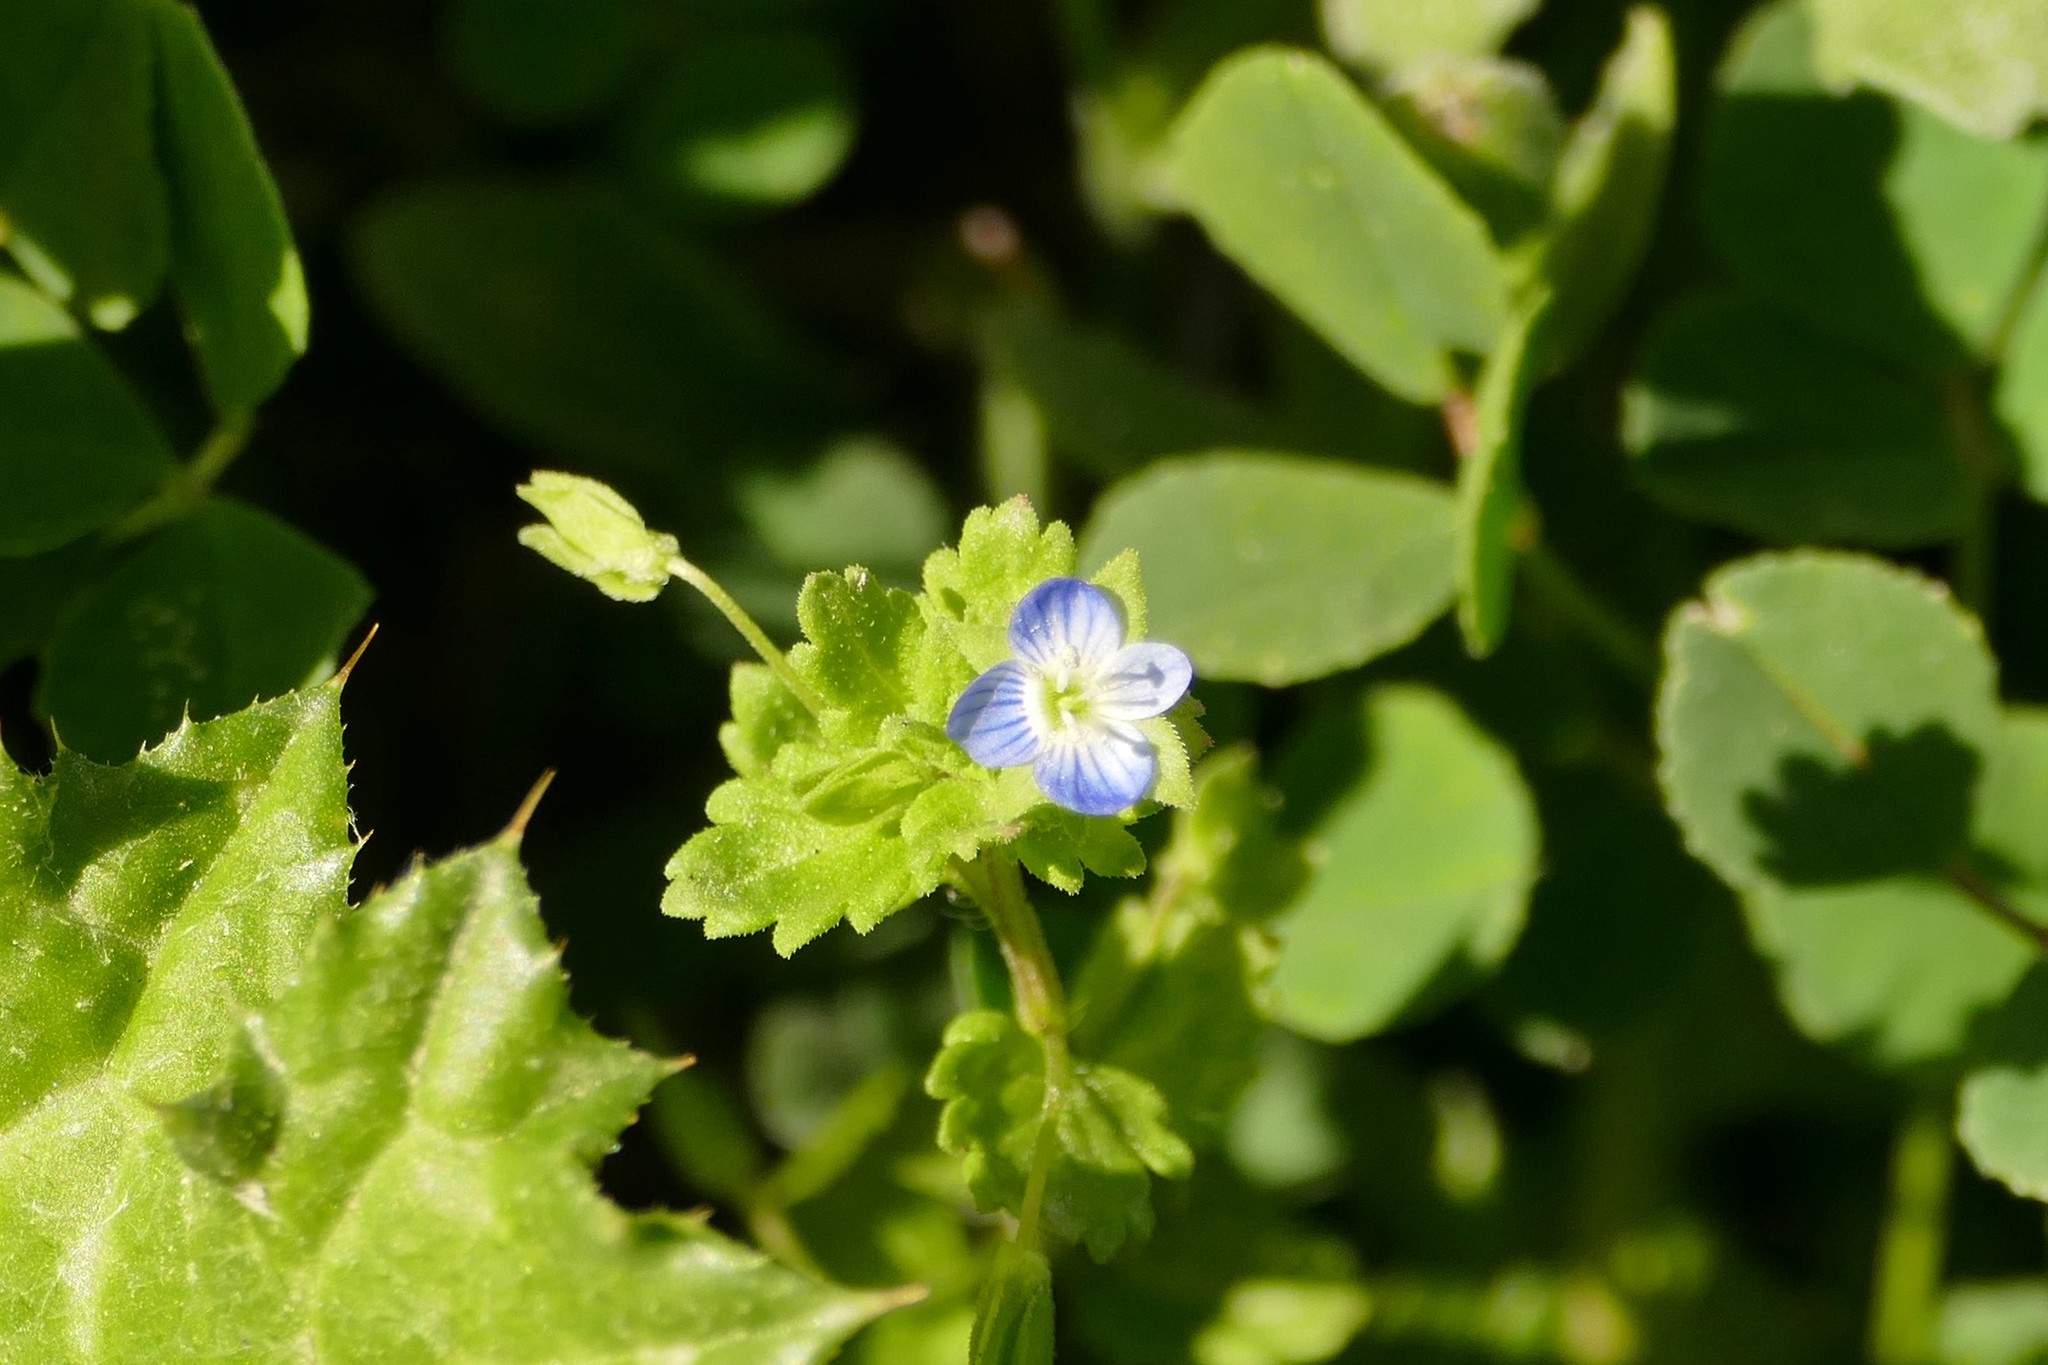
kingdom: Plantae
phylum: Tracheophyta
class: Magnoliopsida
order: Lamiales
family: Plantaginaceae
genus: Veronica
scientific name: Veronica persica
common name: Common field-speedwell
